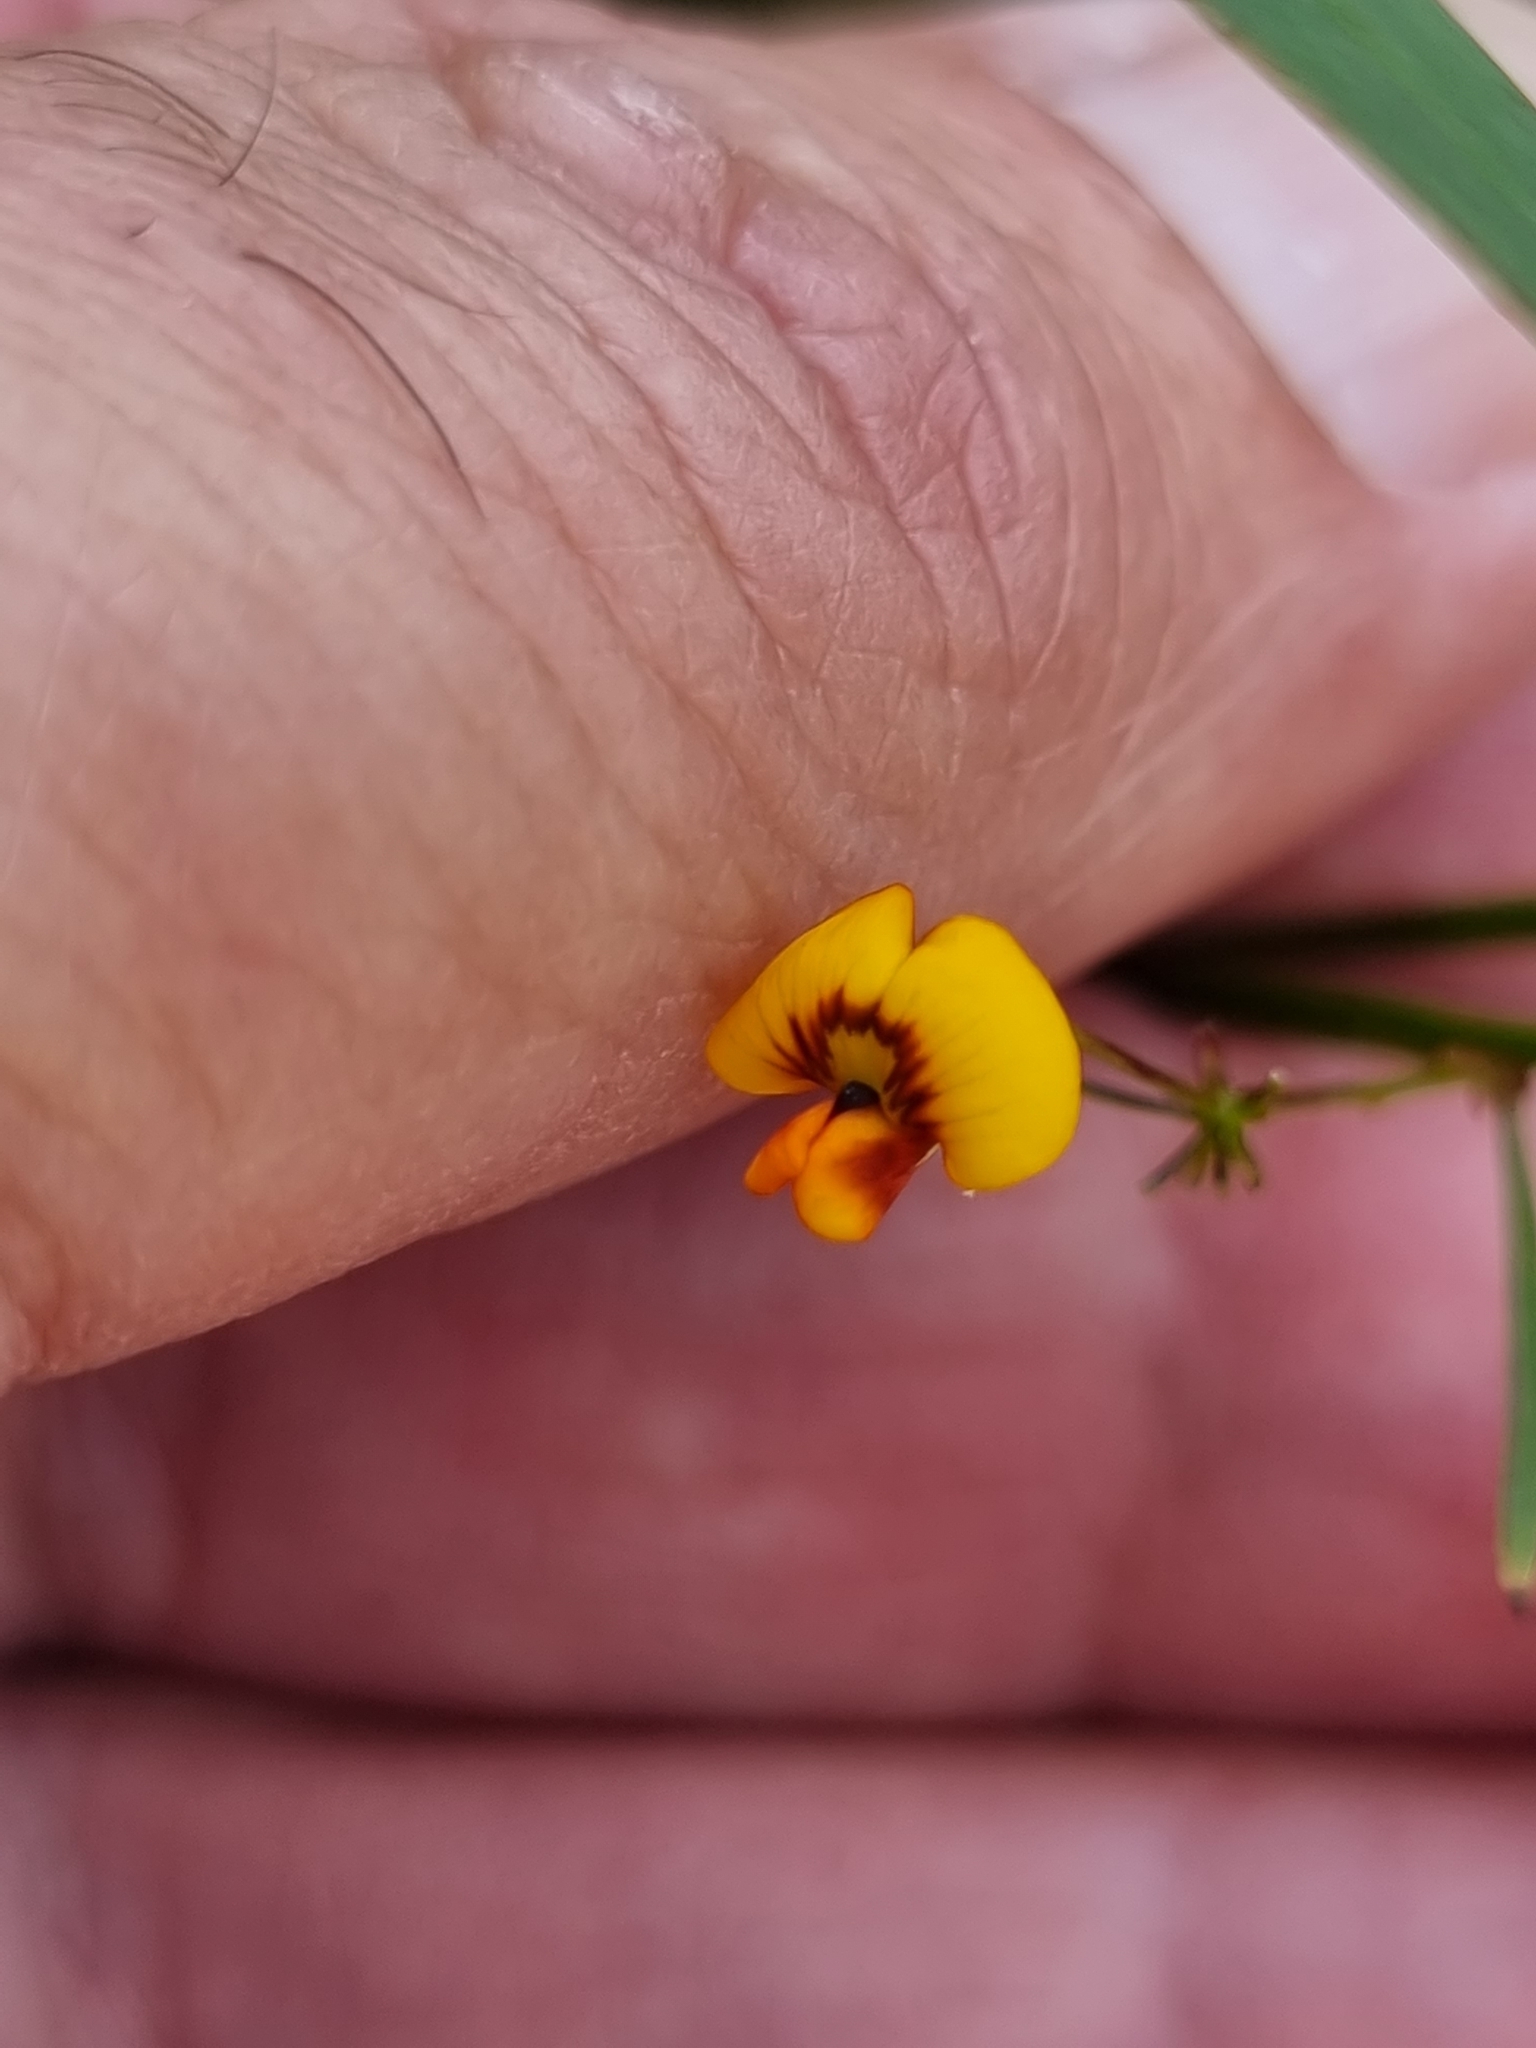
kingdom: Plantae
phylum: Tracheophyta
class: Magnoliopsida
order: Fabales
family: Fabaceae
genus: Daviesia
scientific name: Daviesia wyattiana
